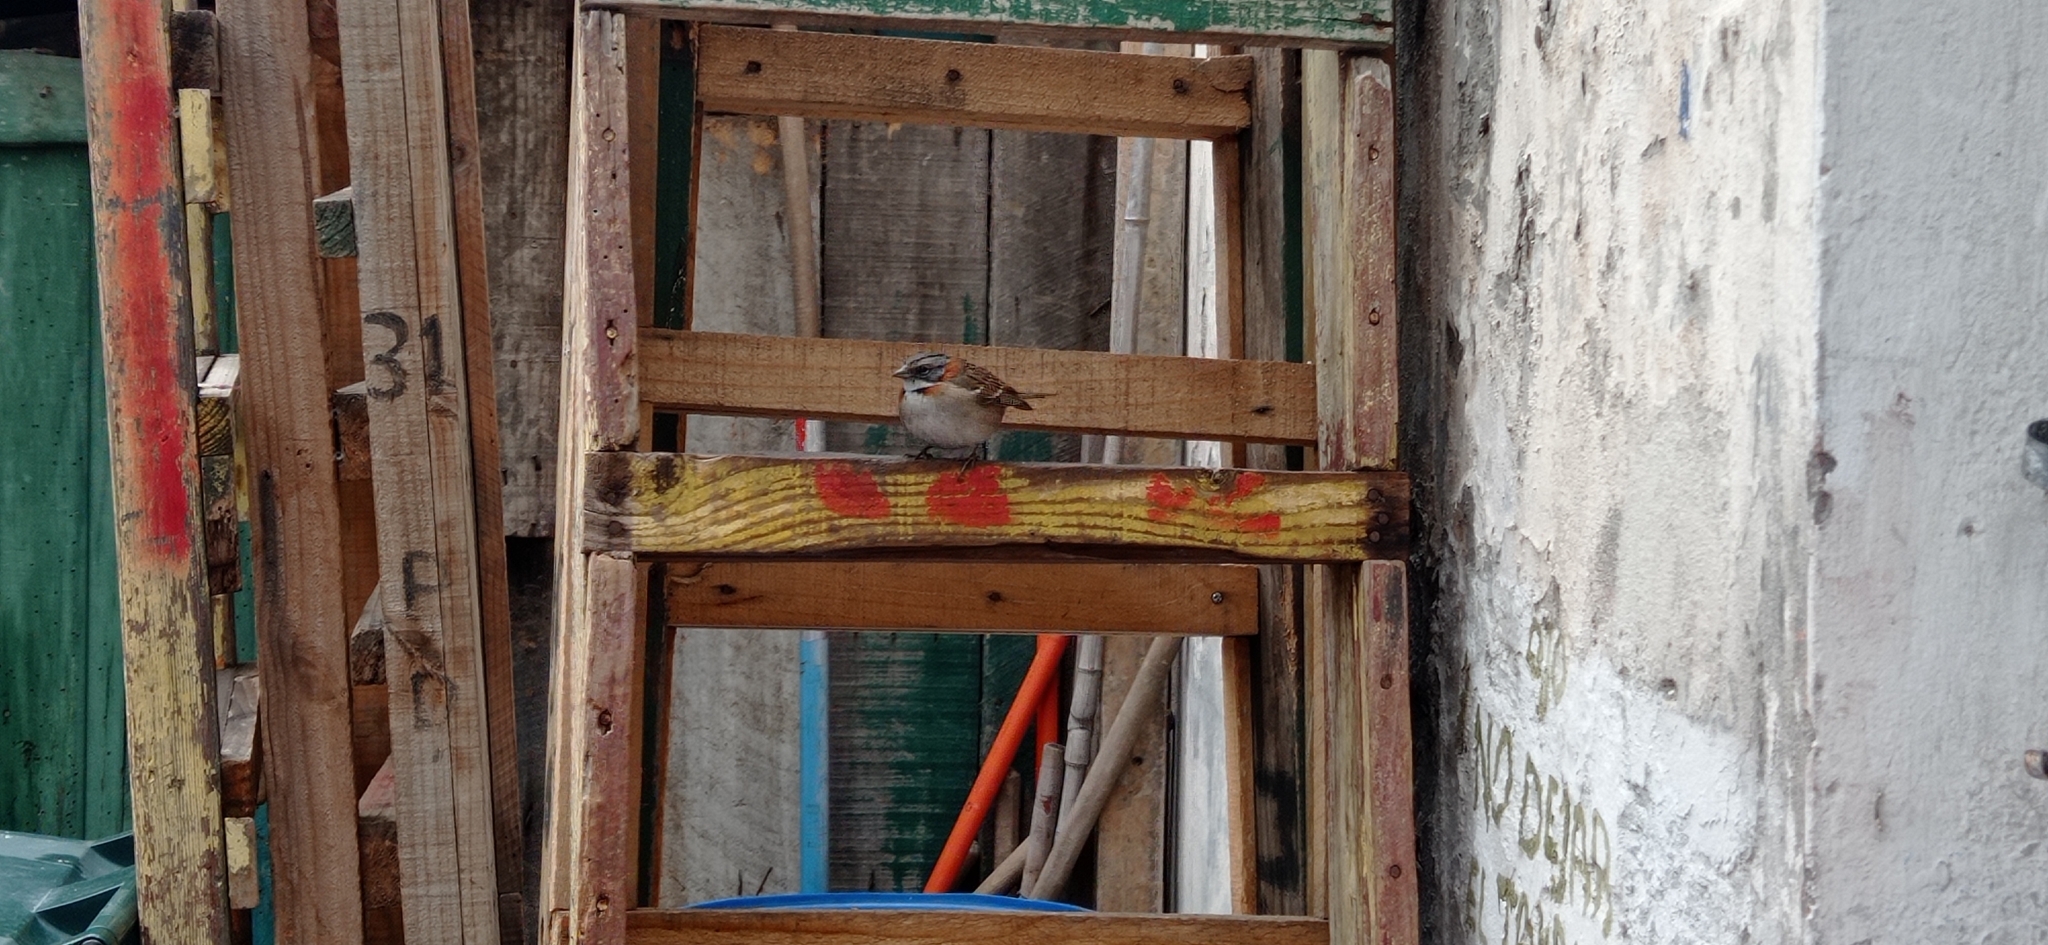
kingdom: Animalia
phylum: Chordata
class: Aves
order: Passeriformes
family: Passerellidae
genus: Zonotrichia
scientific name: Zonotrichia capensis
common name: Rufous-collared sparrow
